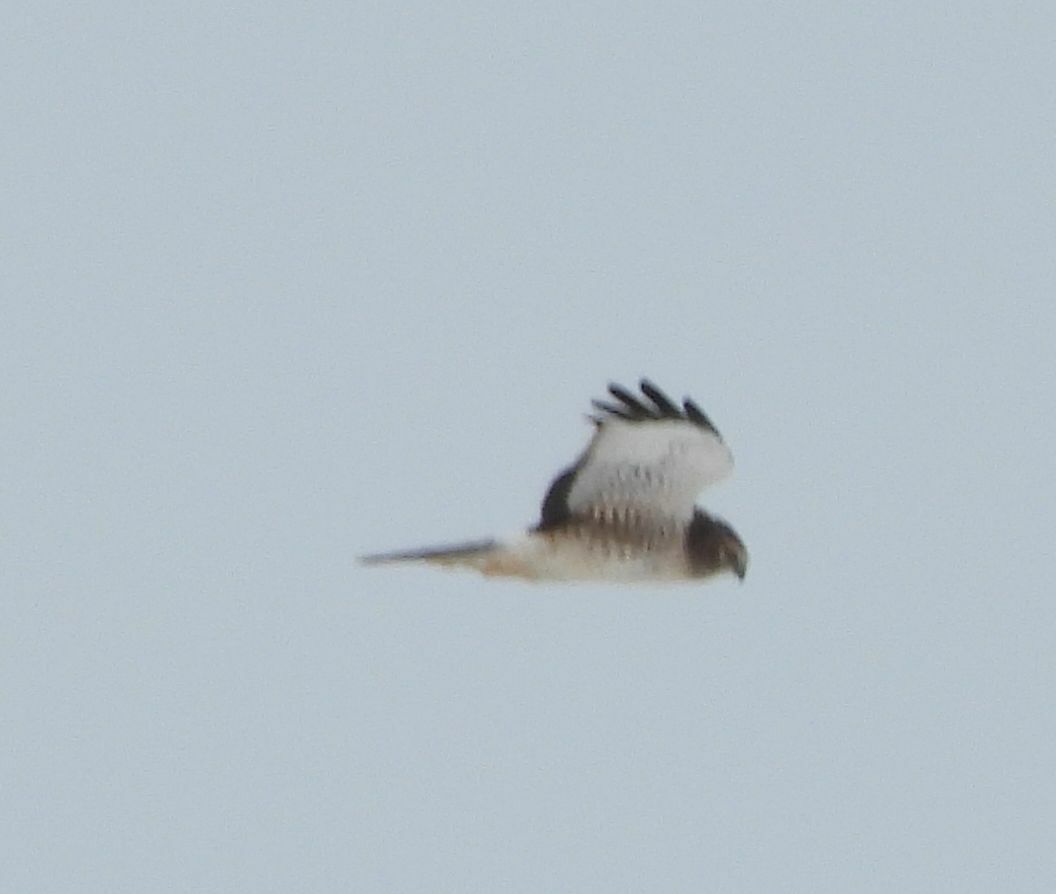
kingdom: Animalia
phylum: Chordata
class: Aves
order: Accipitriformes
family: Accipitridae
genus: Circus
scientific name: Circus cyaneus
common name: Hen harrier
